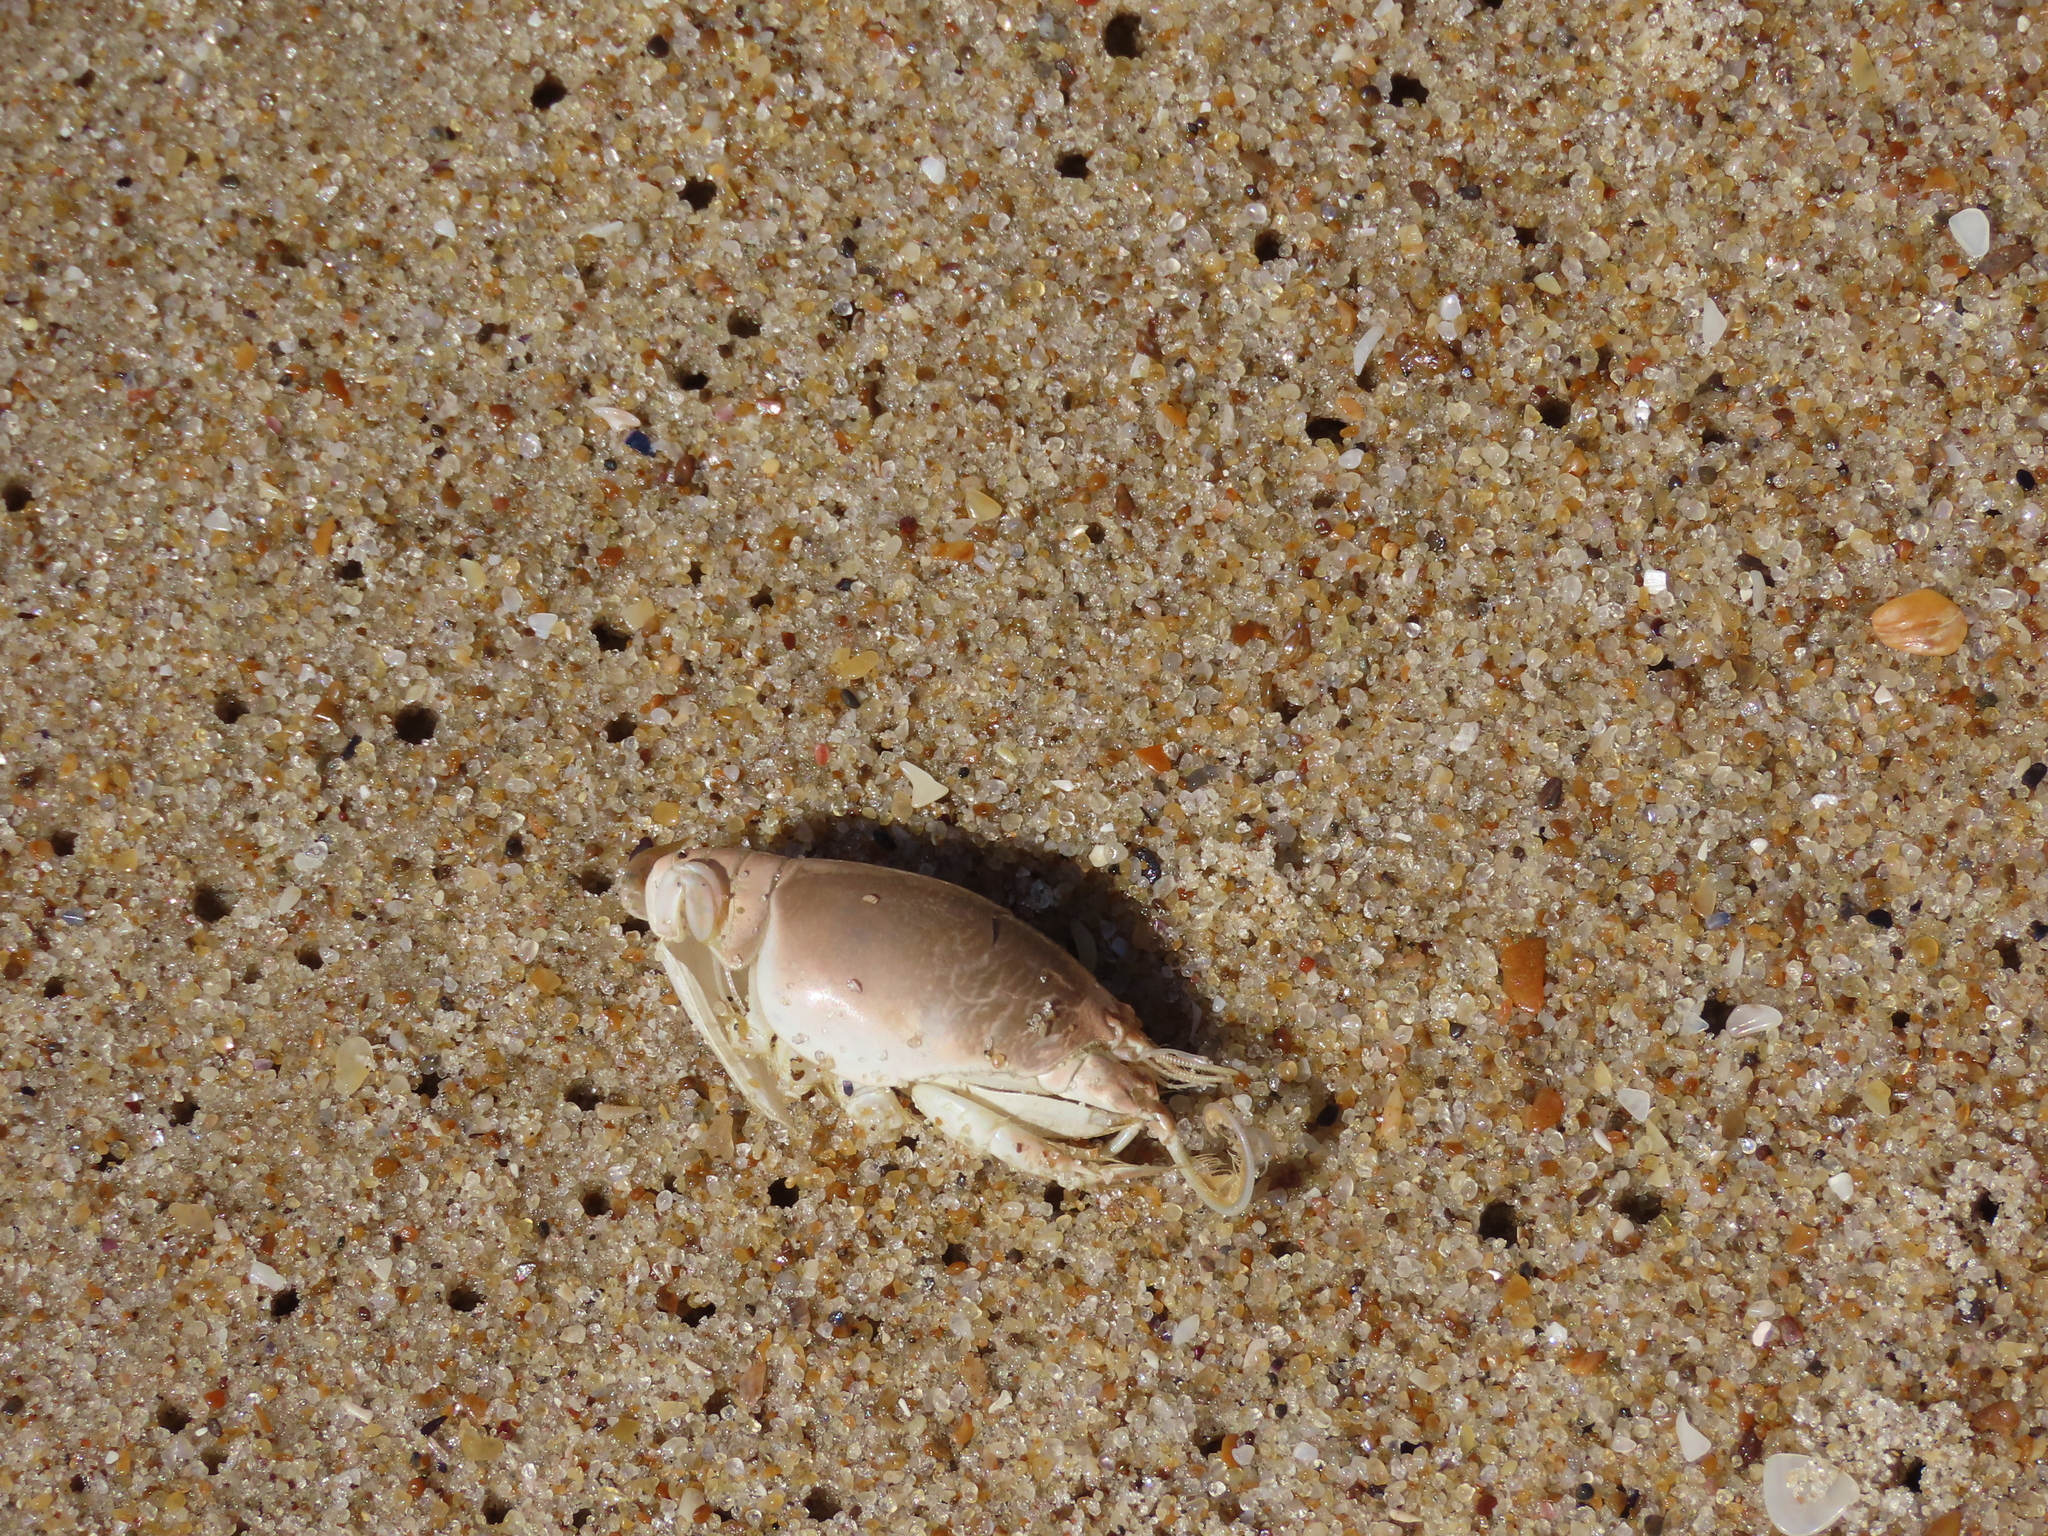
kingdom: Animalia
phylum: Arthropoda
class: Malacostraca
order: Decapoda
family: Hippidae
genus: Emerita
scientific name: Emerita brasiliensis
